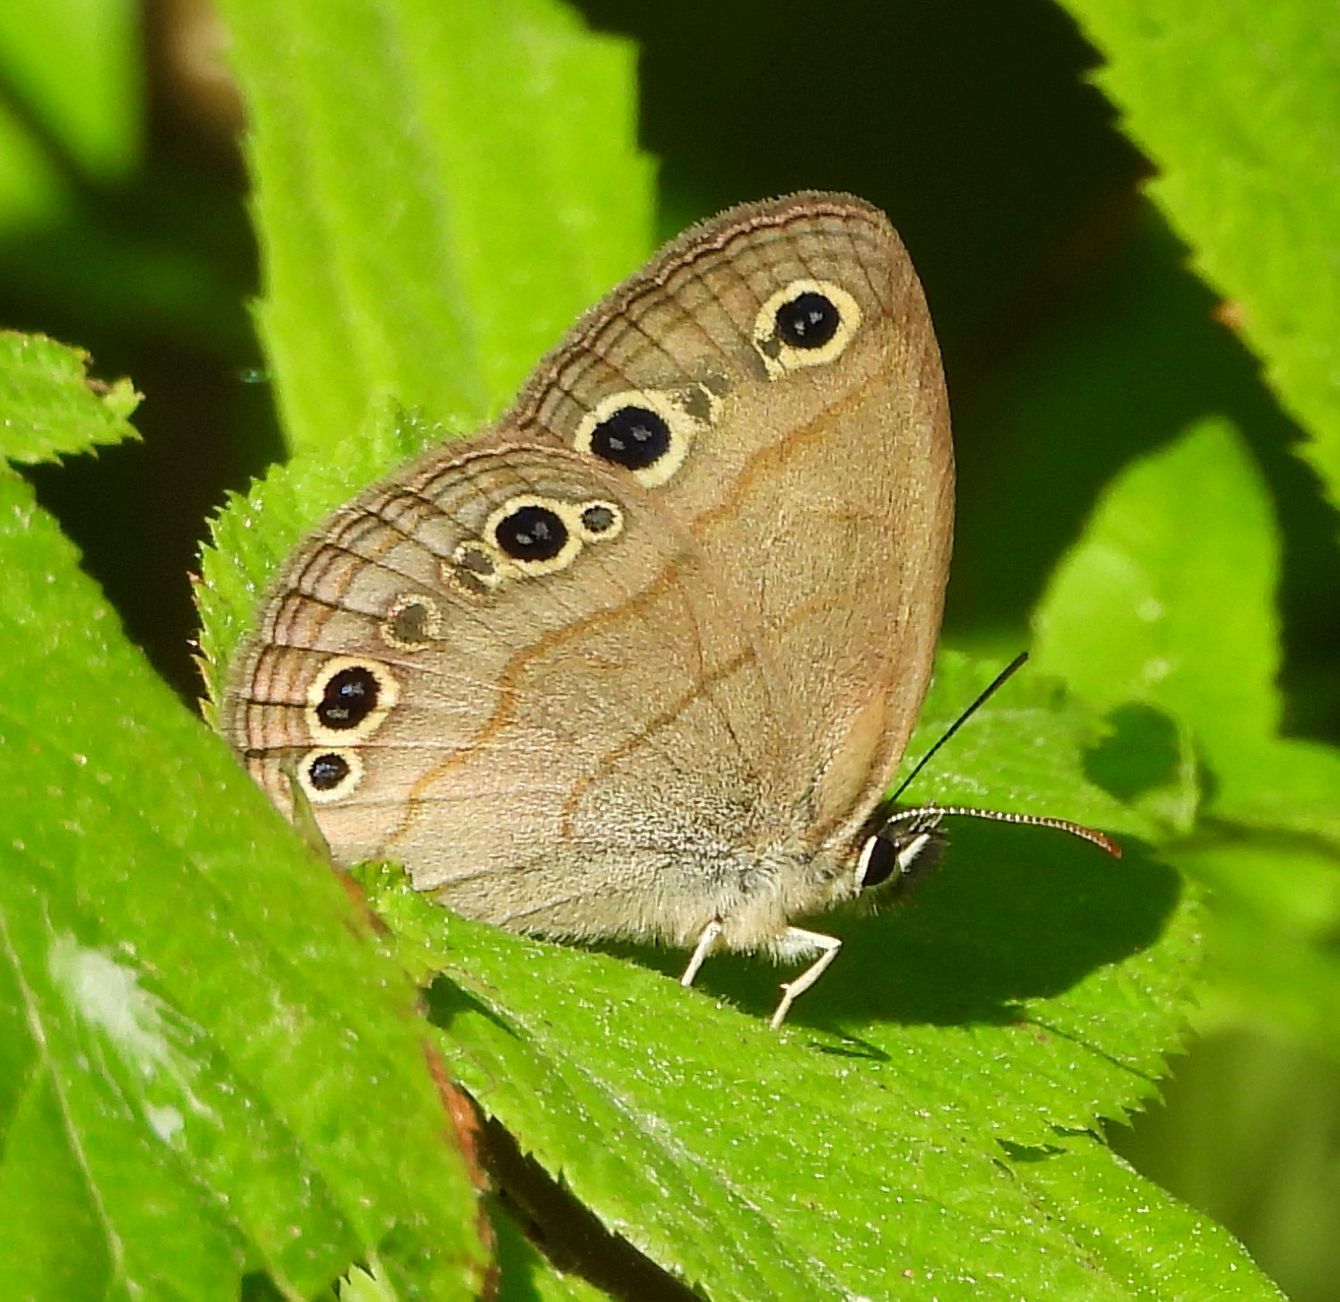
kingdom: Animalia
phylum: Arthropoda
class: Insecta
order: Lepidoptera
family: Nymphalidae
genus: Euptychia
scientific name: Euptychia cymela
